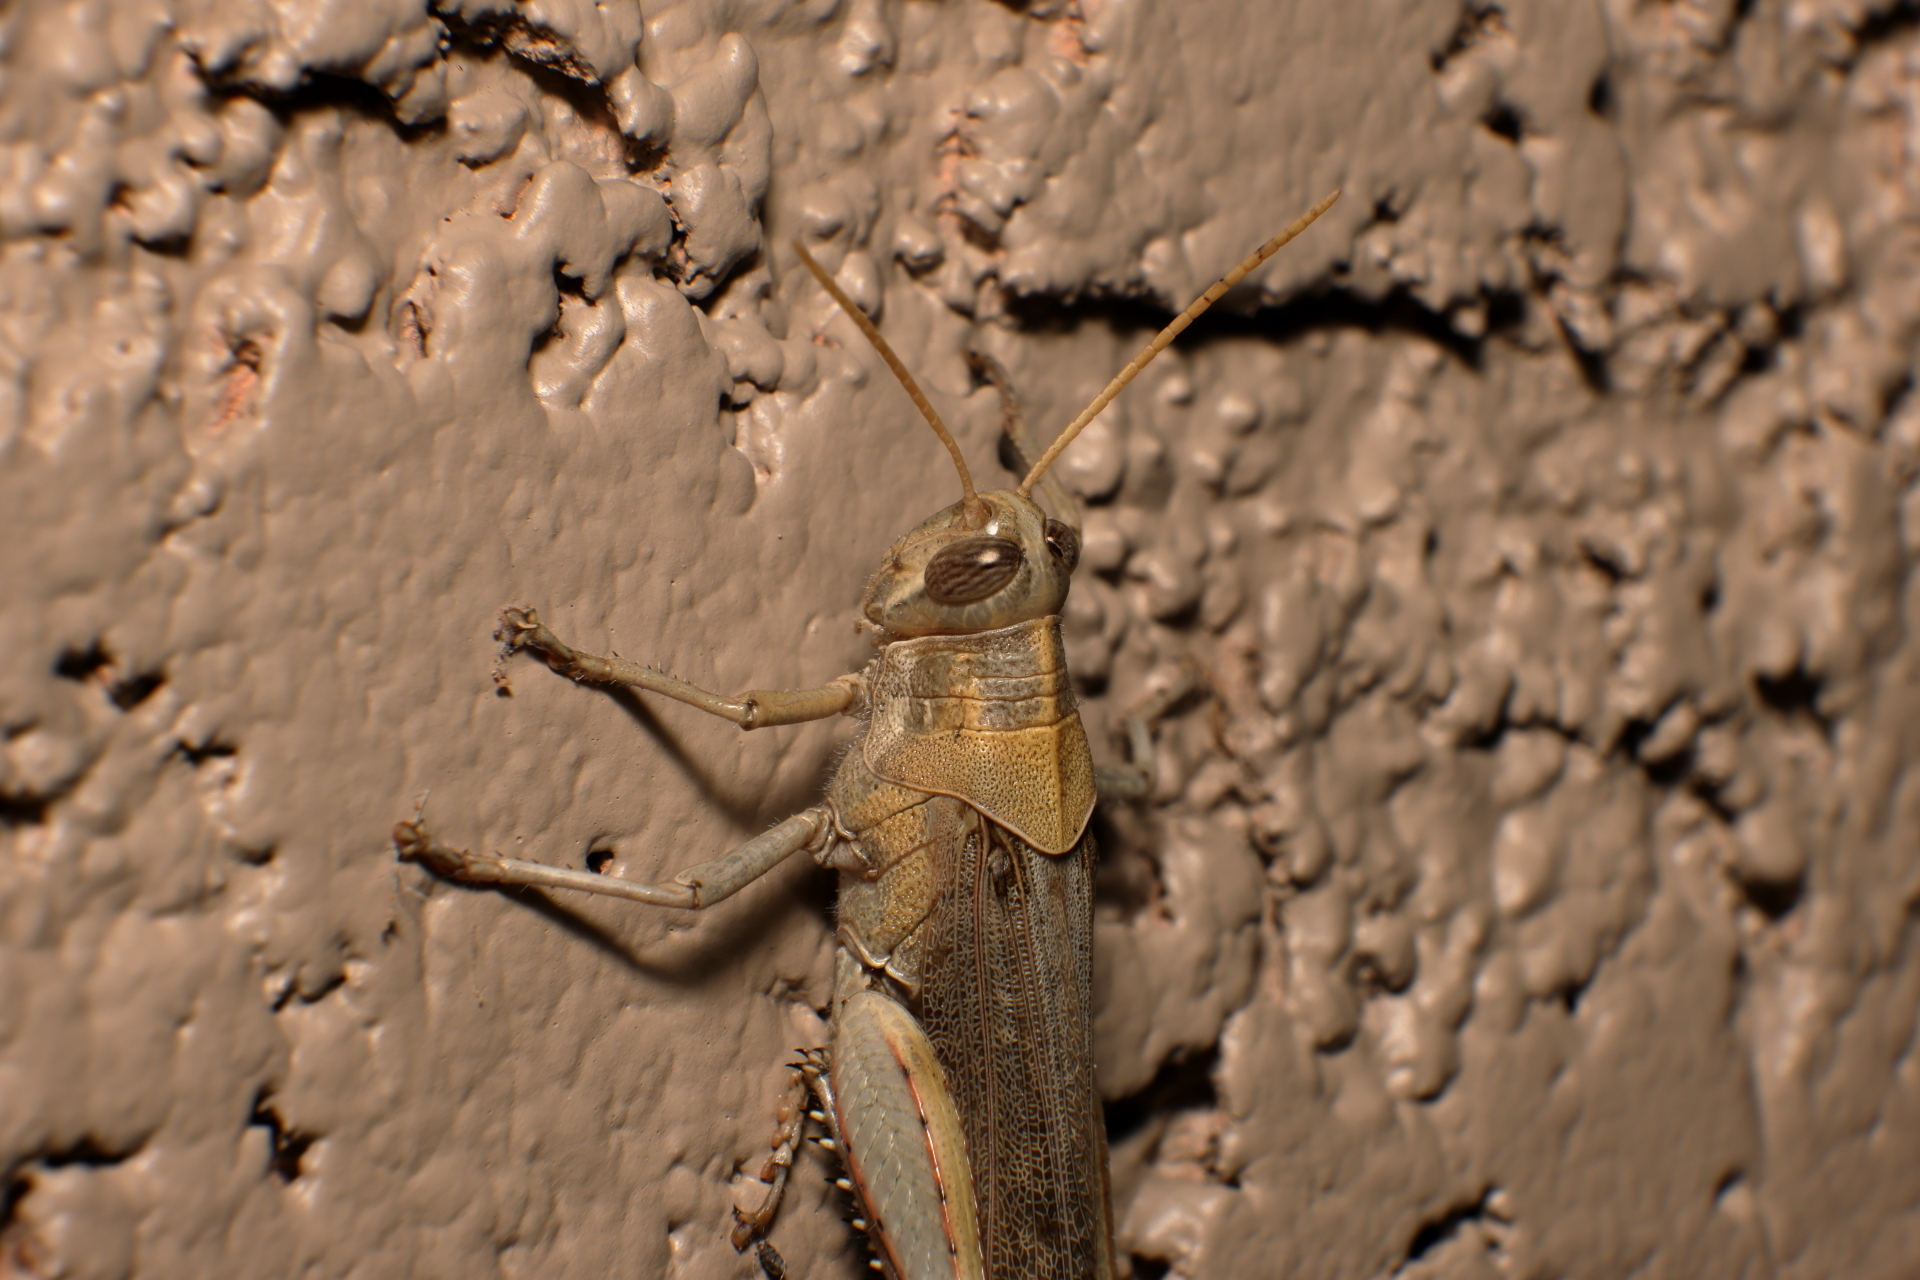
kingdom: Animalia
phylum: Arthropoda
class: Insecta
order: Orthoptera
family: Acrididae
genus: Schistocerca
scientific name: Schistocerca nitens
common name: Vagrant grasshopper
